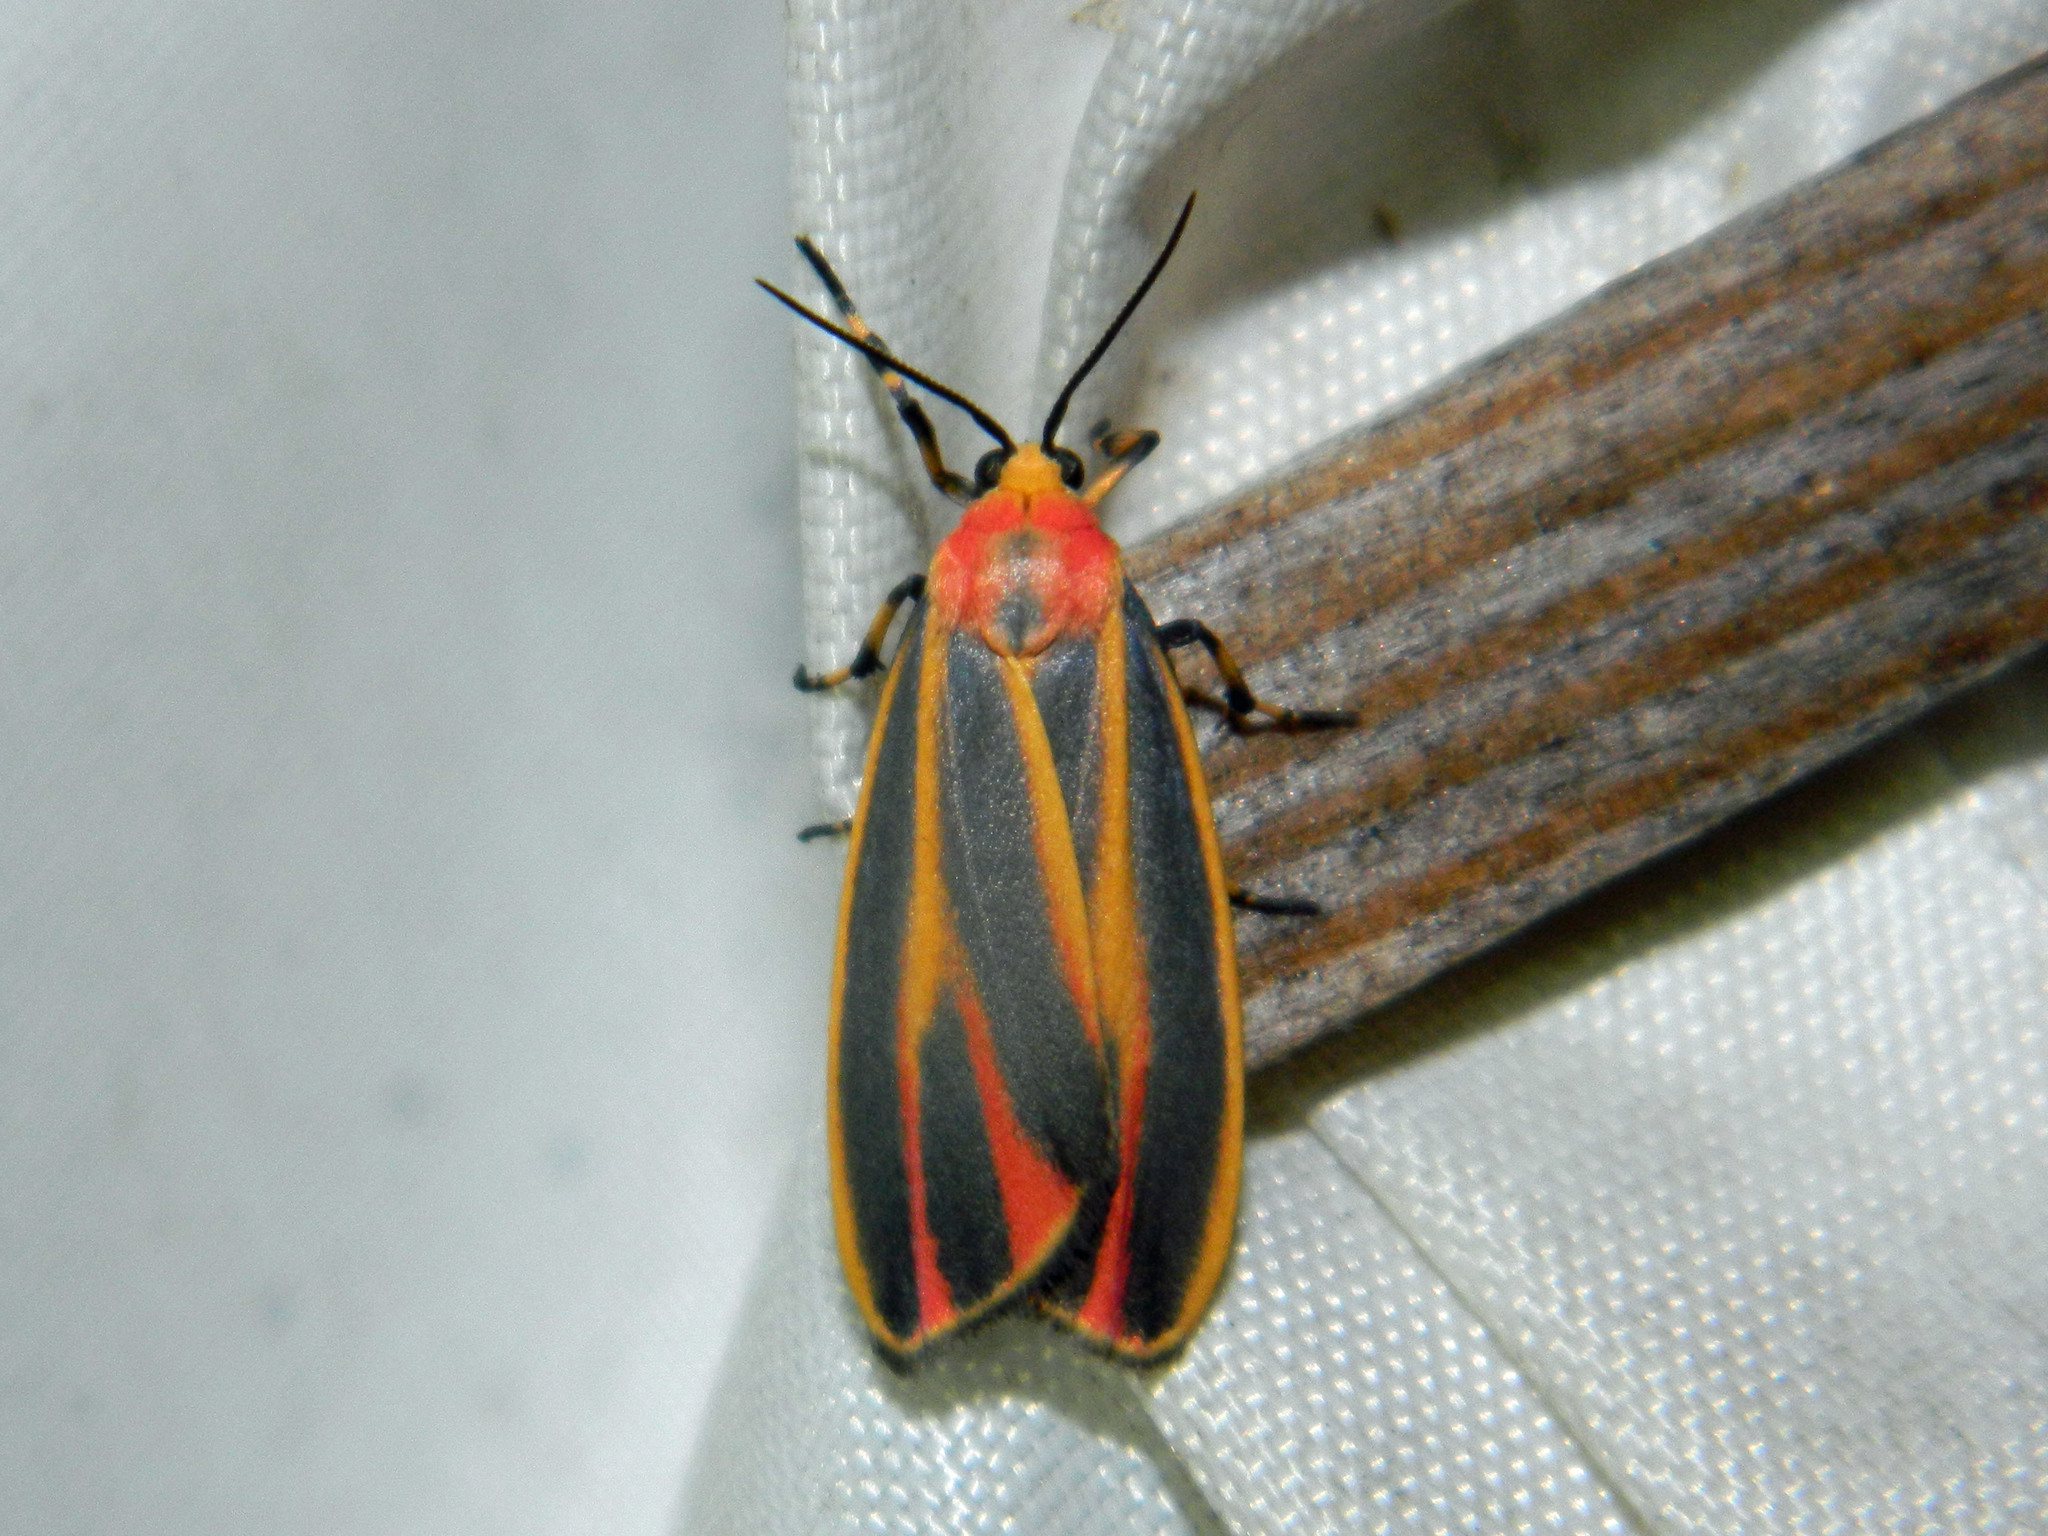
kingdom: Animalia
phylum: Arthropoda
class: Insecta
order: Lepidoptera
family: Erebidae
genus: Hypoprepia
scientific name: Hypoprepia fucosa
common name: Painted lichen moth
